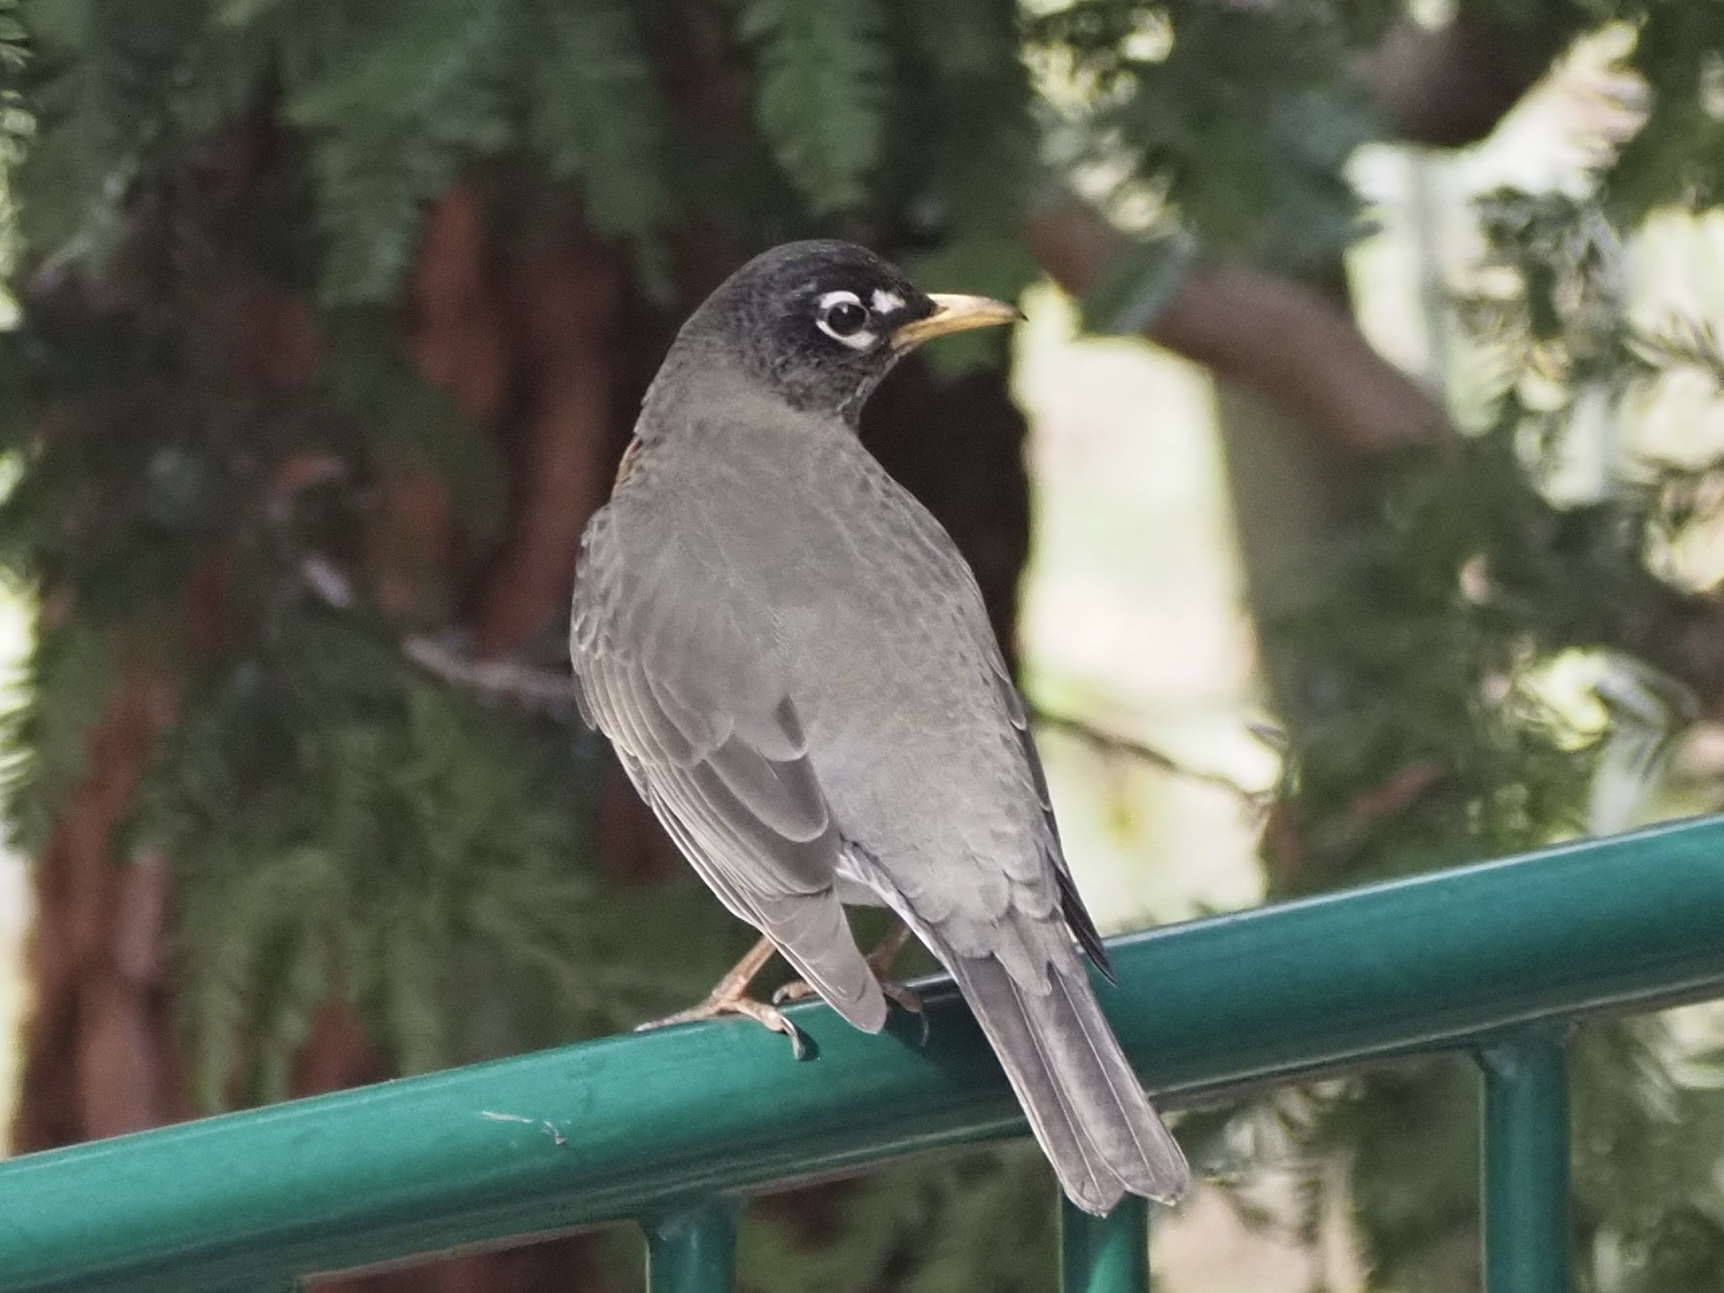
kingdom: Animalia
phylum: Chordata
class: Aves
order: Passeriformes
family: Turdidae
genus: Turdus
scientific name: Turdus migratorius
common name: American robin
